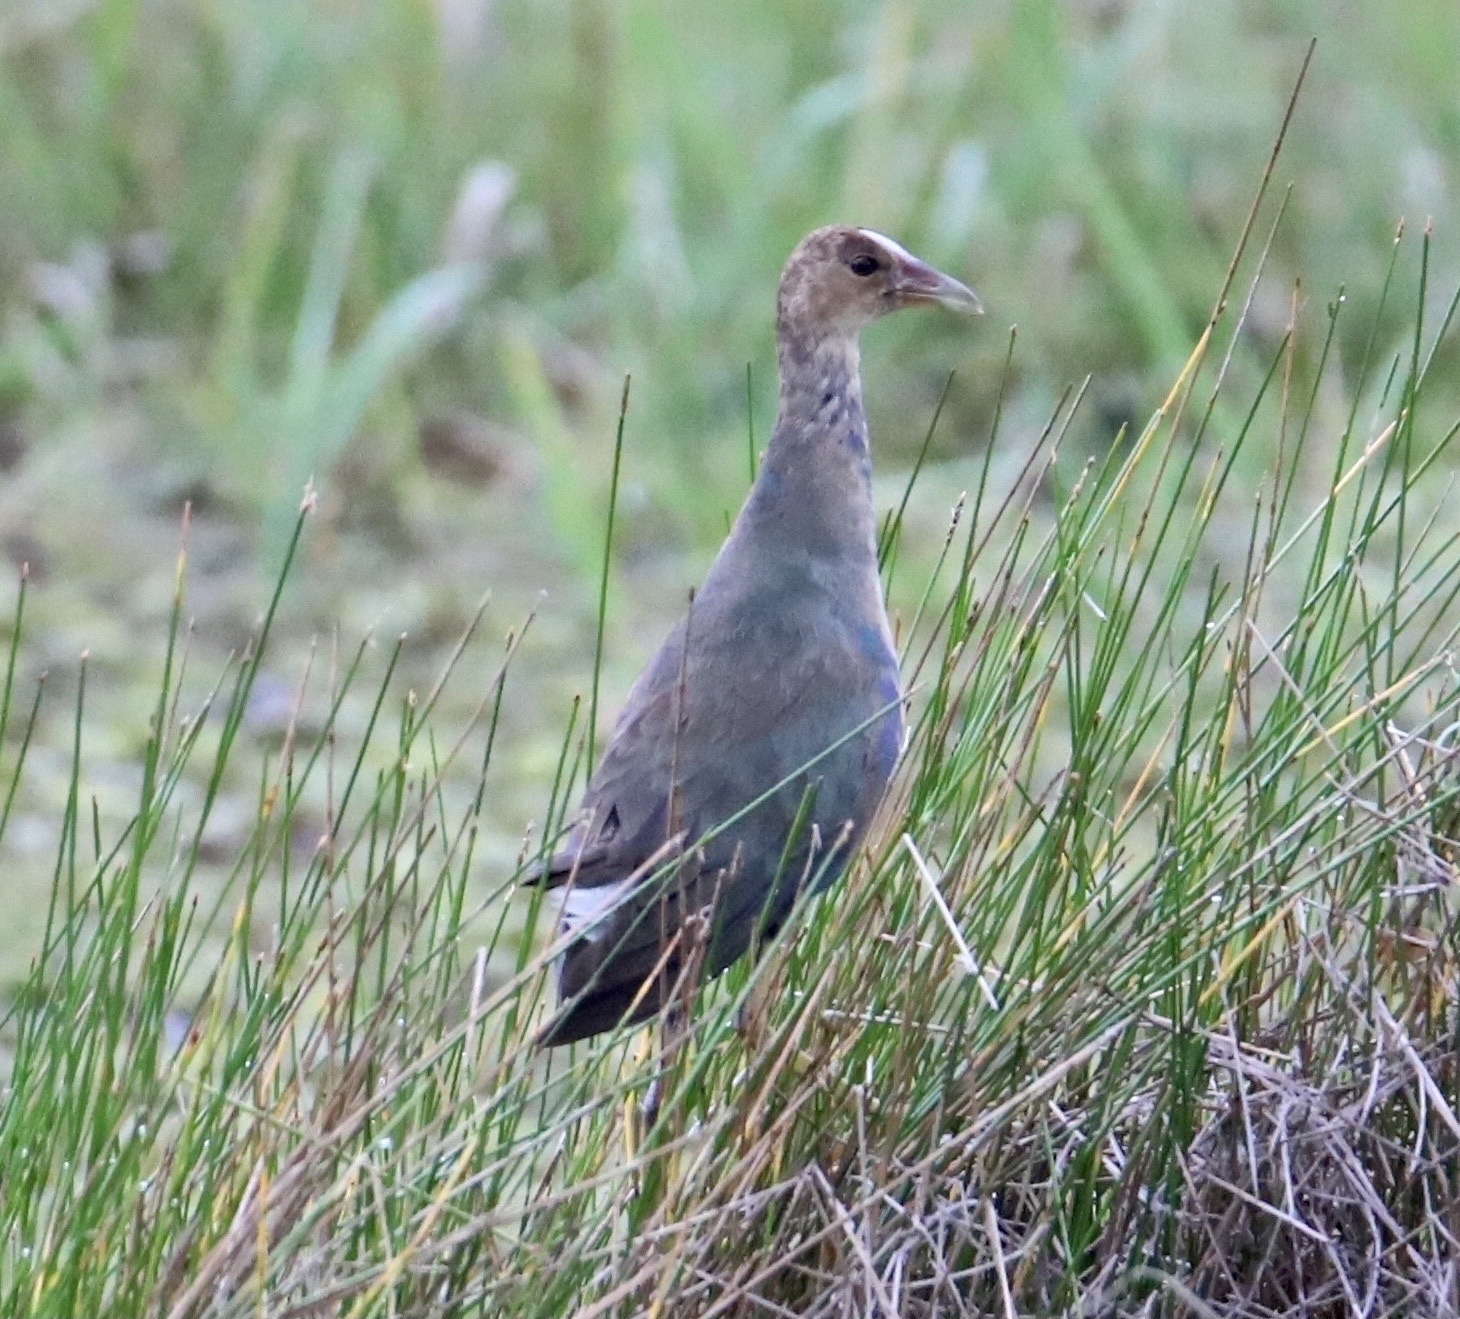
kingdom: Animalia
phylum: Chordata
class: Aves
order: Gruiformes
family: Rallidae
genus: Porphyrio
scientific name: Porphyrio martinica
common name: Purple gallinule
